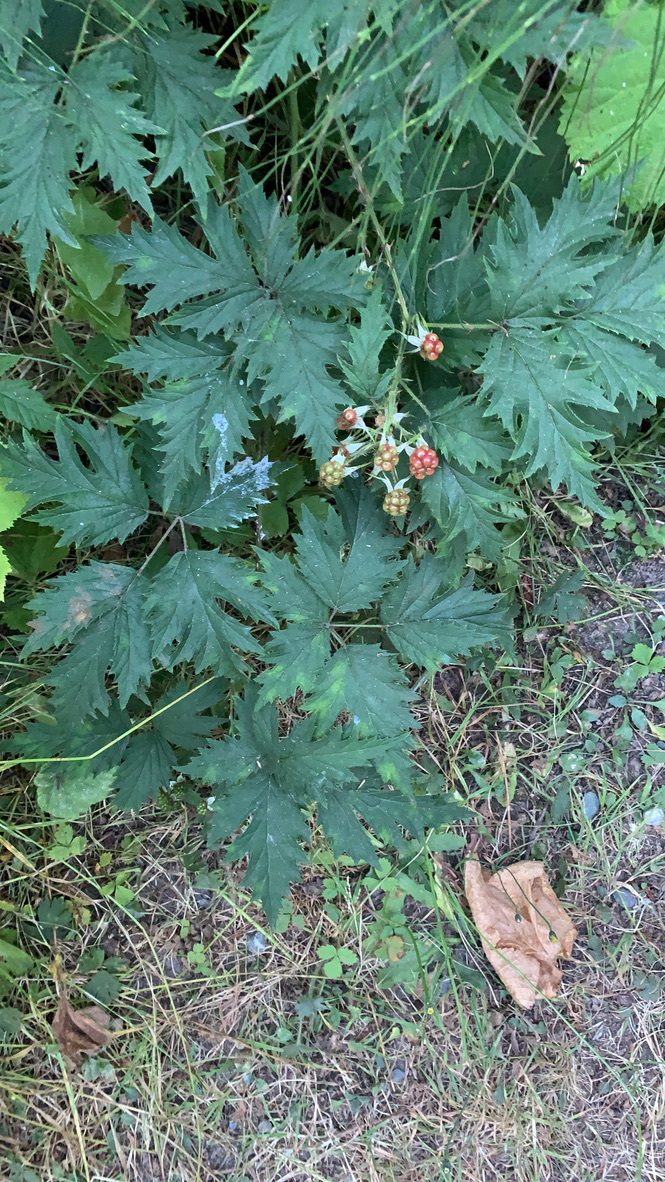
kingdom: Plantae
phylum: Tracheophyta
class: Magnoliopsida
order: Rosales
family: Rosaceae
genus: Rubus
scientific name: Rubus laciniatus
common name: Evergreen blackberry
